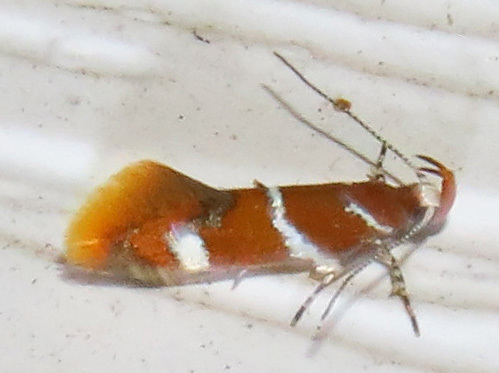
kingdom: Animalia
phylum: Arthropoda
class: Insecta
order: Lepidoptera
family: Oecophoridae
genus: Promalactis
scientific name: Promalactis suzukiella
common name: Moth
